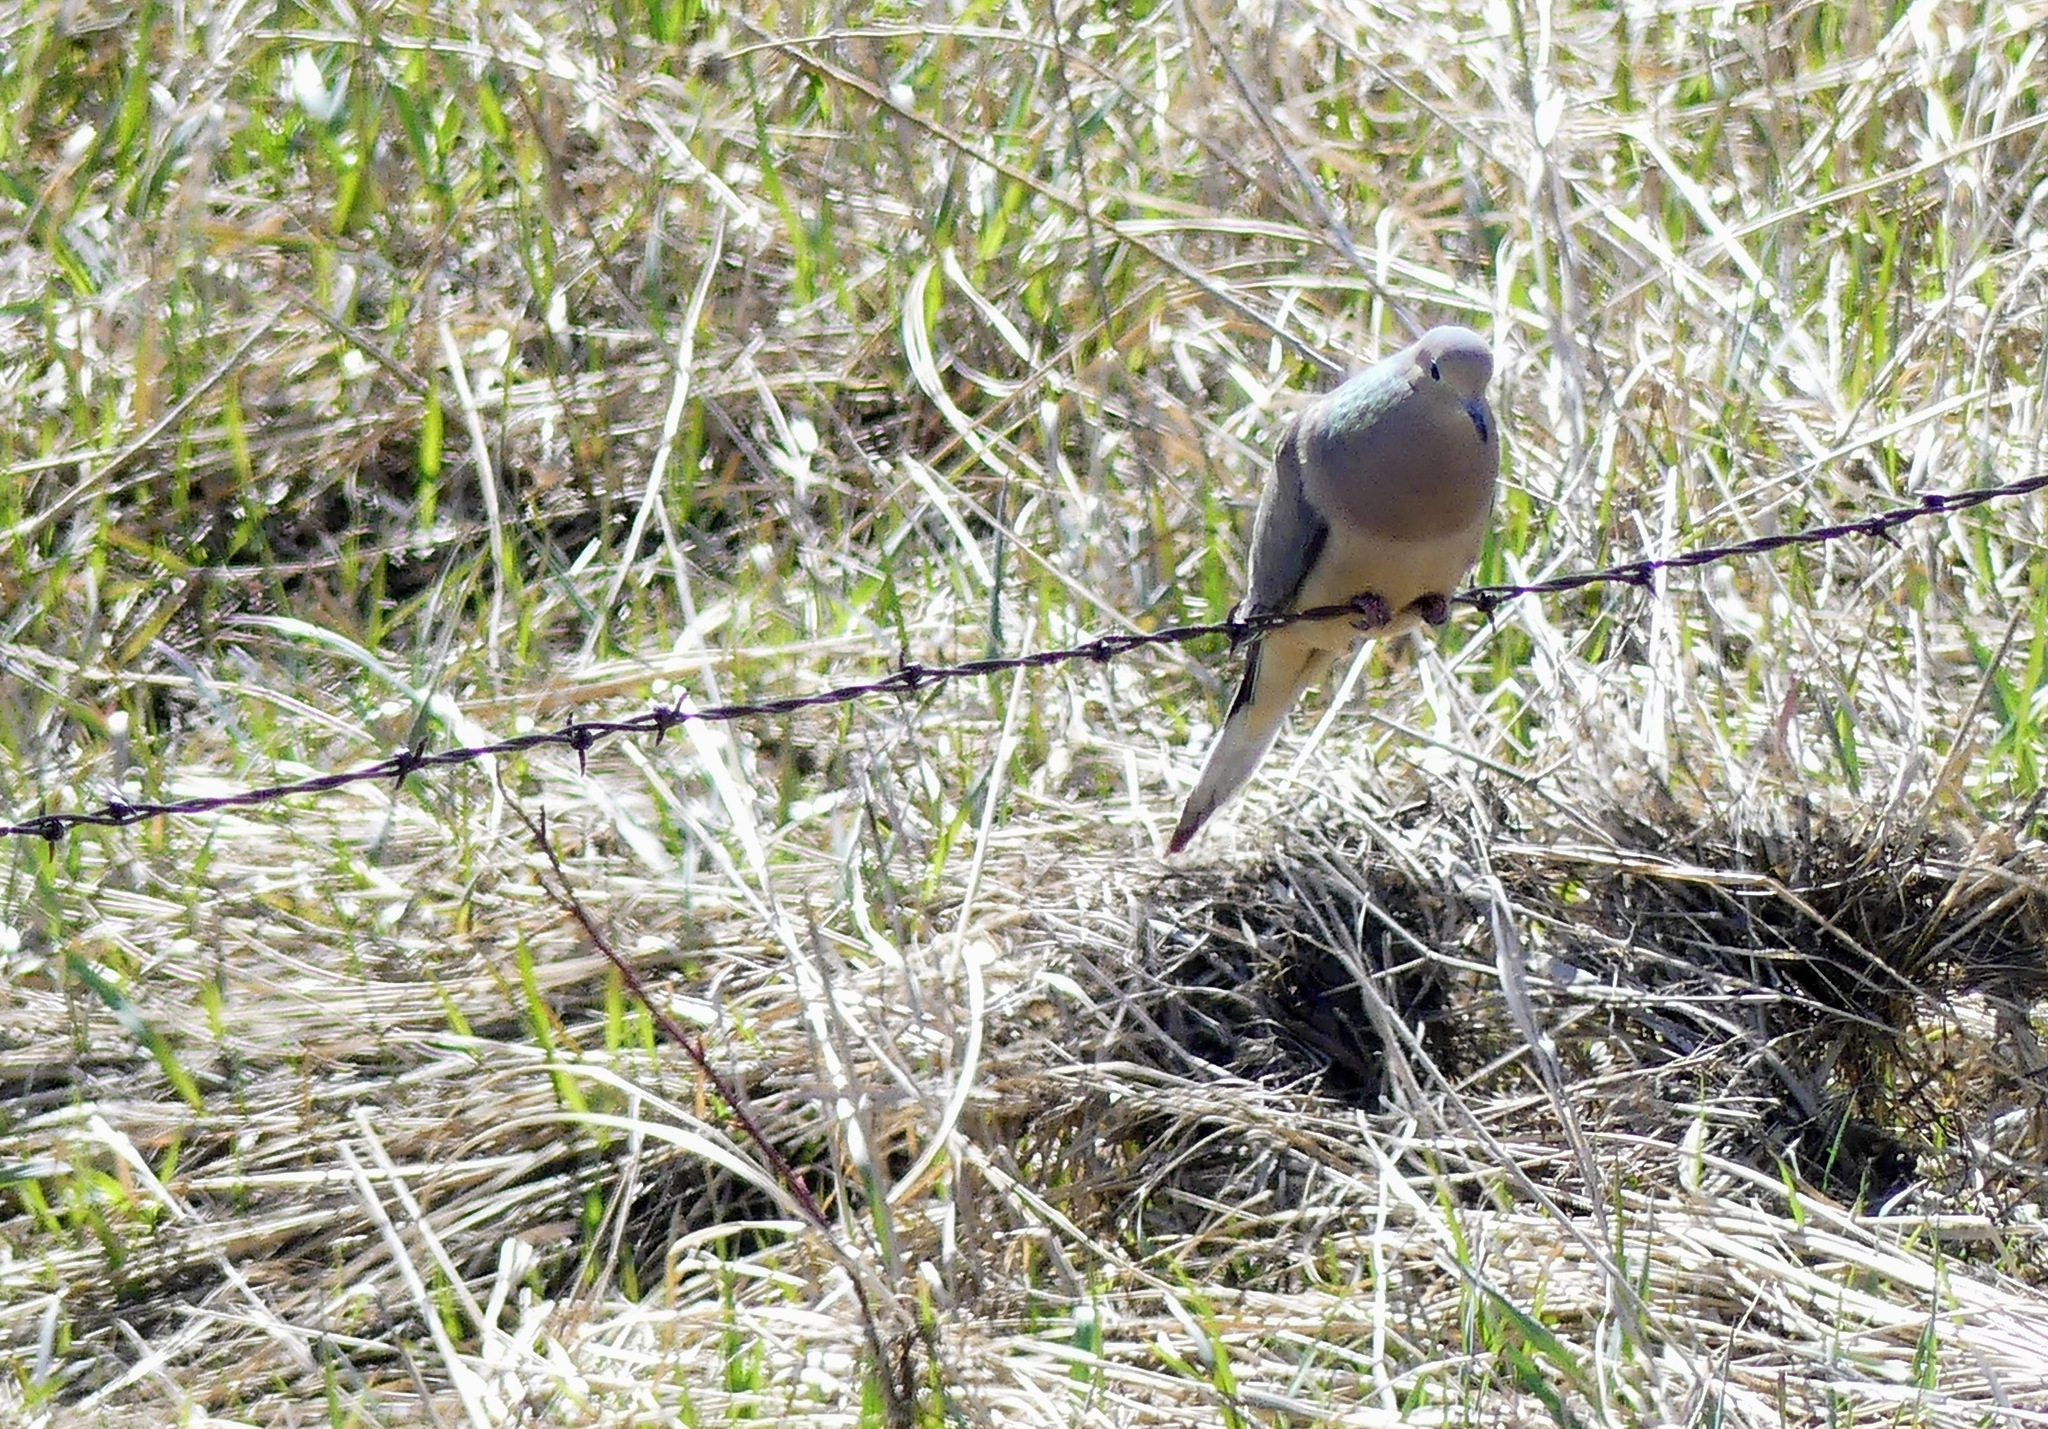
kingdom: Animalia
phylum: Chordata
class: Aves
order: Columbiformes
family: Columbidae
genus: Zenaida
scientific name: Zenaida macroura
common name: Mourning dove
